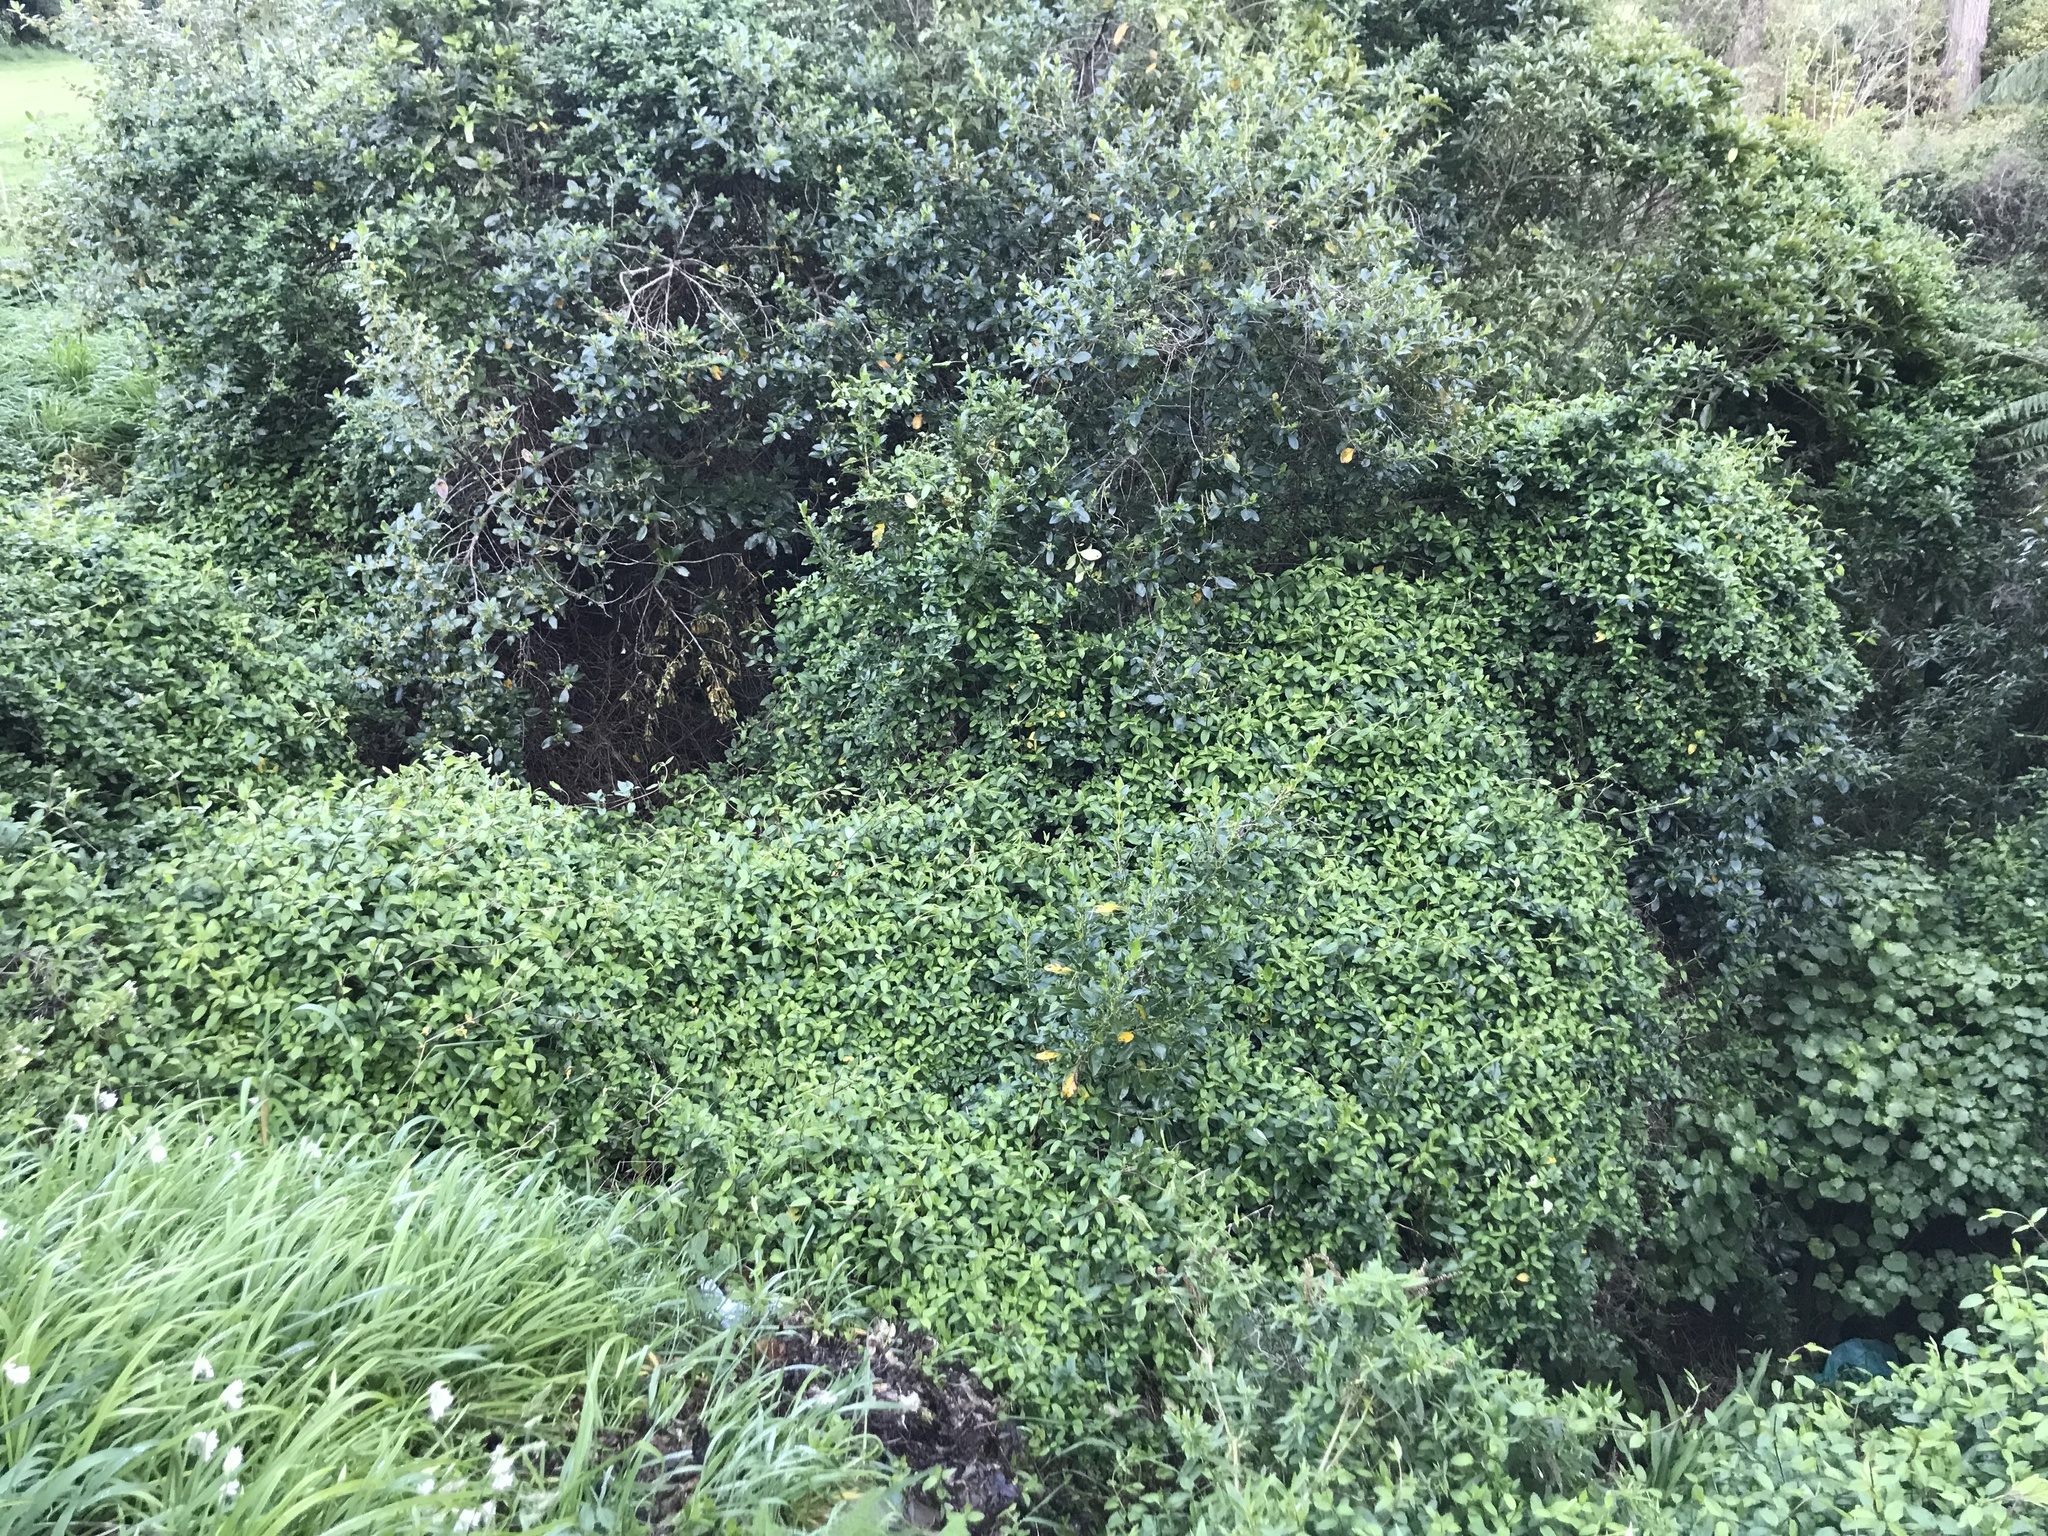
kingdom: Plantae
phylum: Tracheophyta
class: Magnoliopsida
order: Dipsacales
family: Caprifoliaceae
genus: Lonicera
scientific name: Lonicera japonica
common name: Japanese honeysuckle
